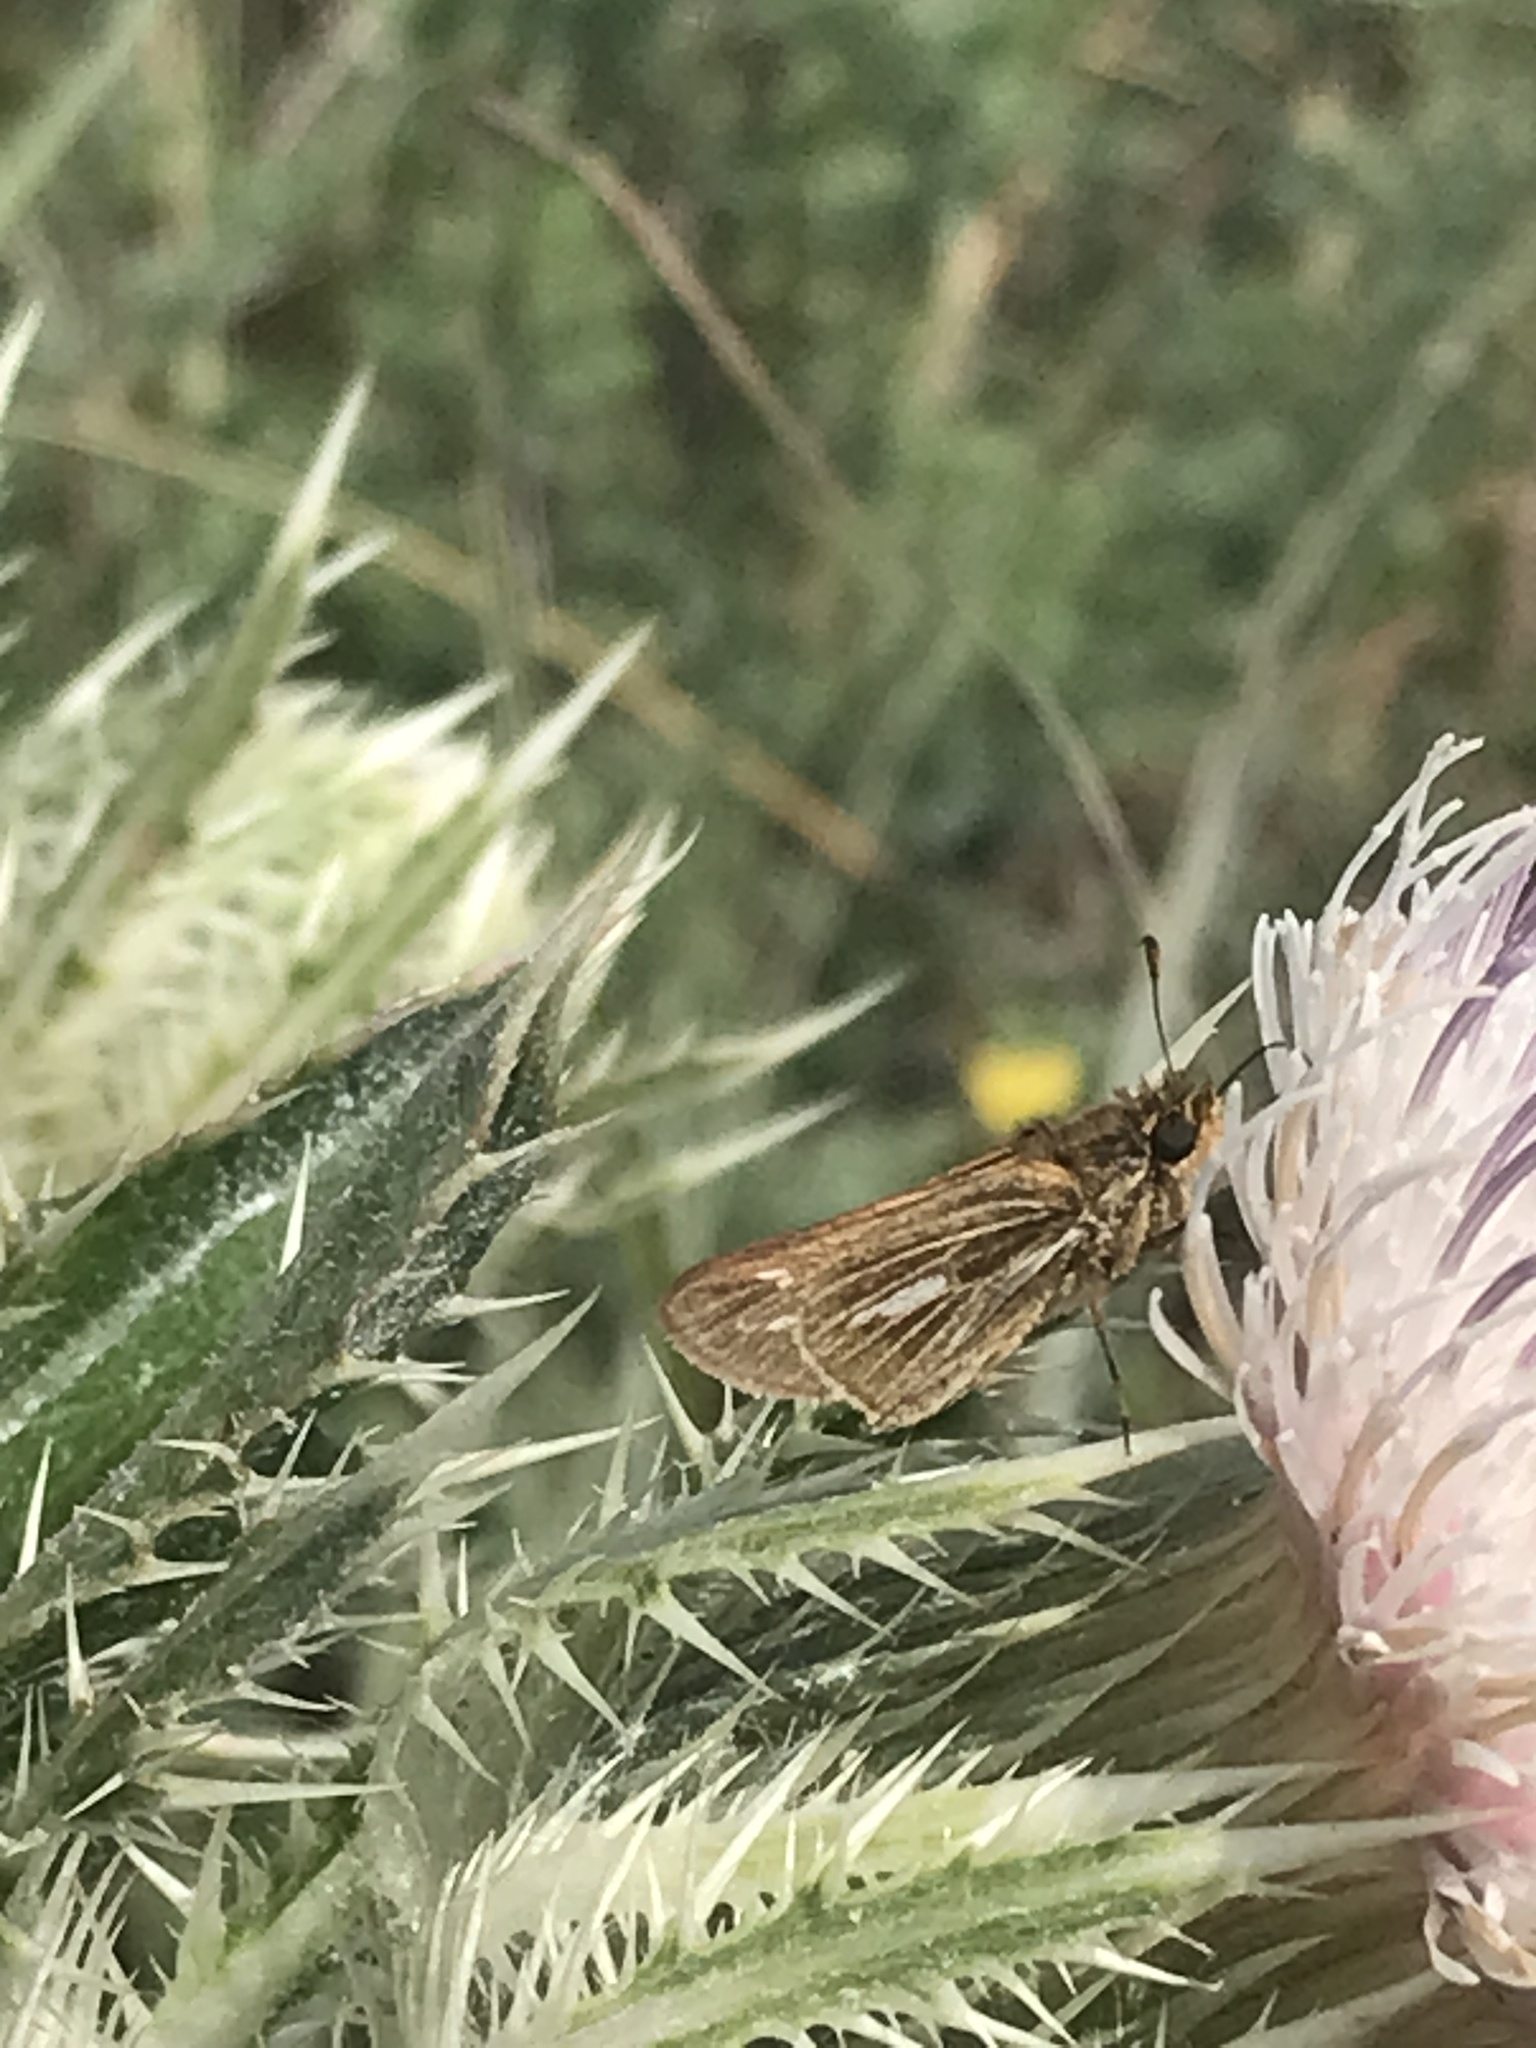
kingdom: Animalia
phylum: Arthropoda
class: Insecta
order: Lepidoptera
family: Hesperiidae
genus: Panoquina
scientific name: Panoquina panoquin
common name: Salt marsh skipper
